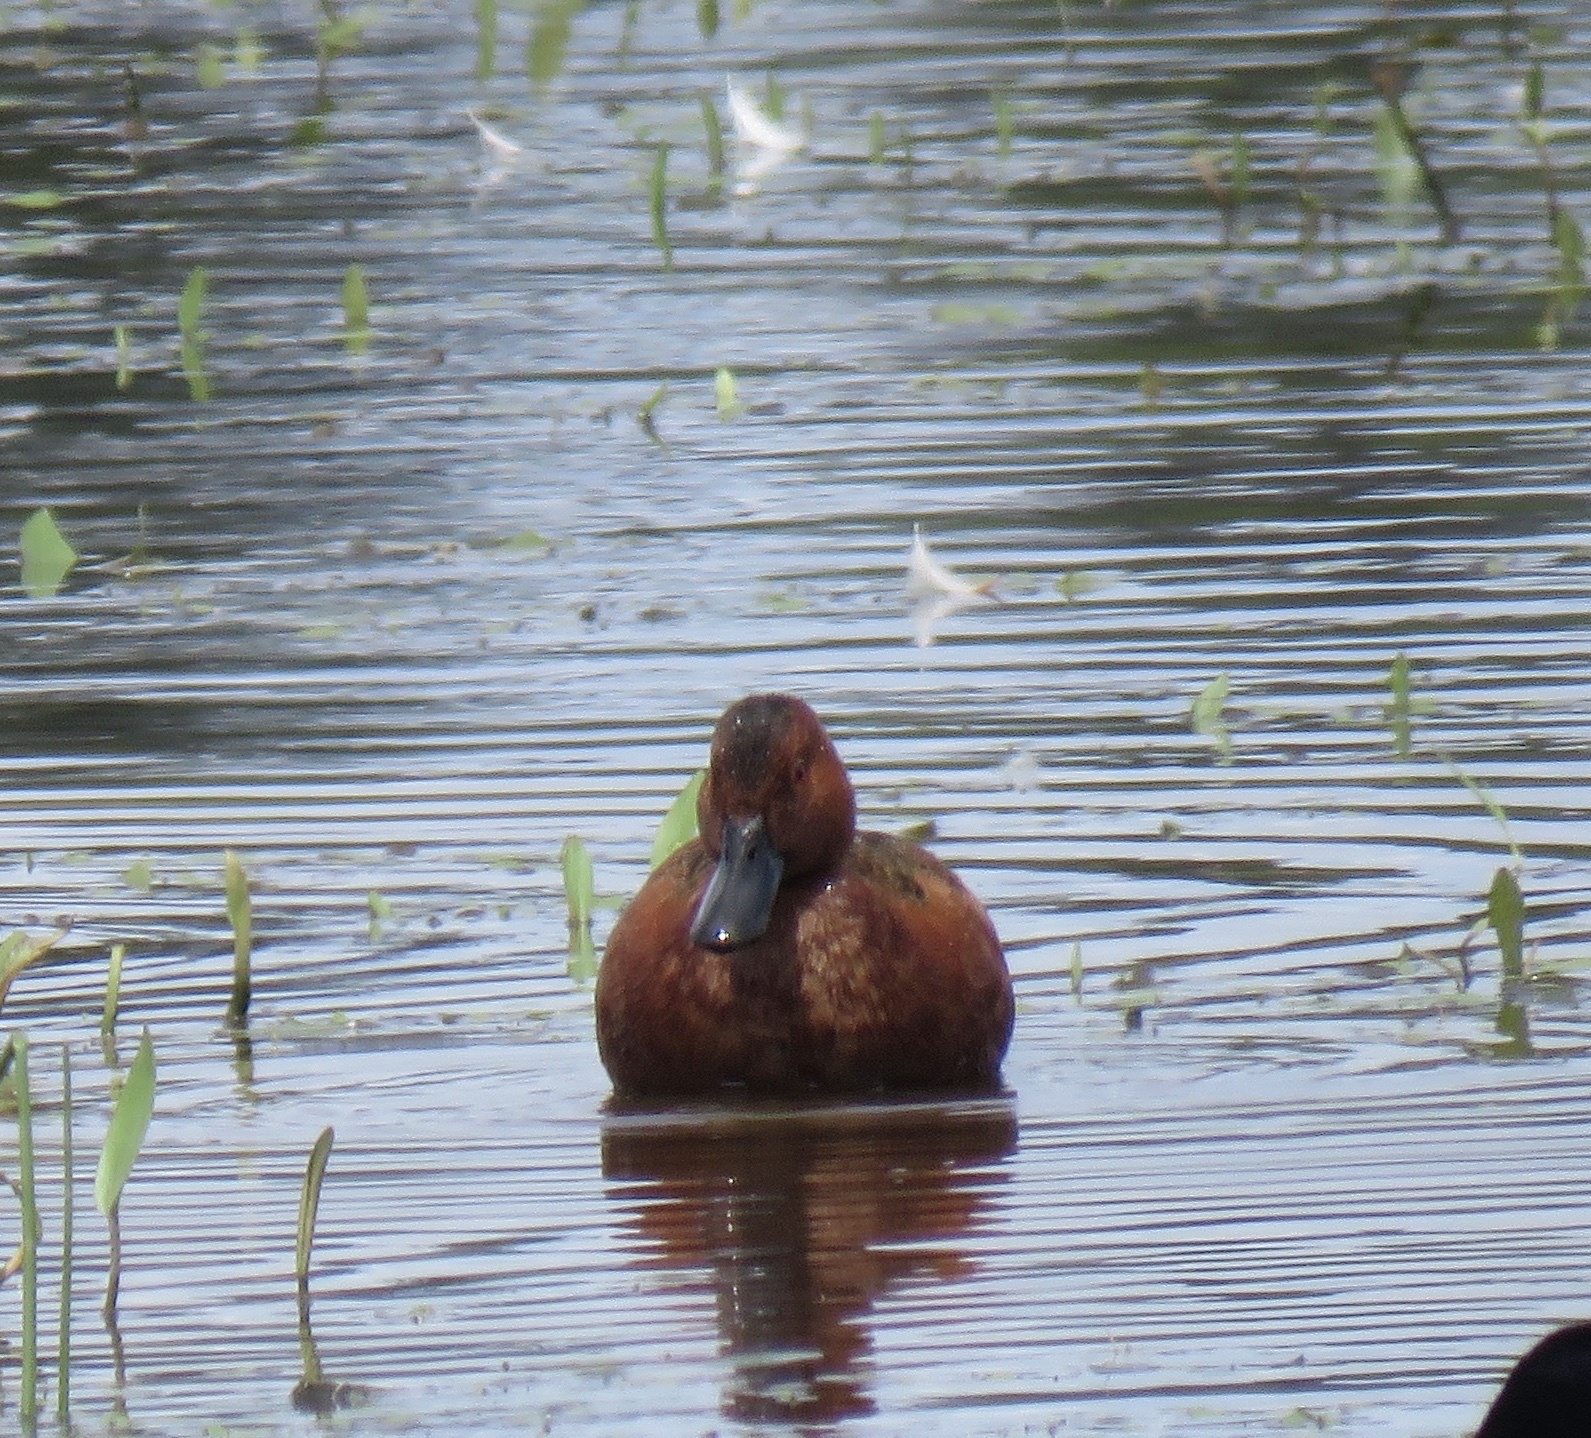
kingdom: Animalia
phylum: Chordata
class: Aves
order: Anseriformes
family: Anatidae
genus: Spatula
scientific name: Spatula cyanoptera
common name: Cinnamon teal
